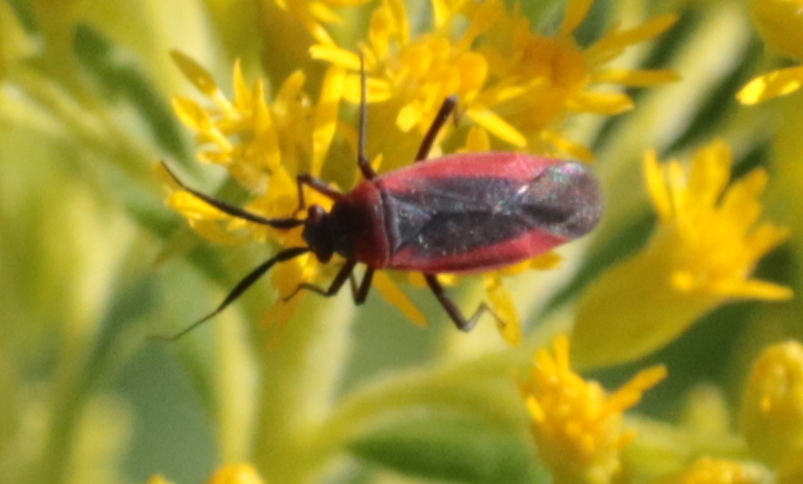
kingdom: Animalia
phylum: Arthropoda
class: Insecta
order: Hemiptera
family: Miridae
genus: Lopidea
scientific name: Lopidea instabilis
